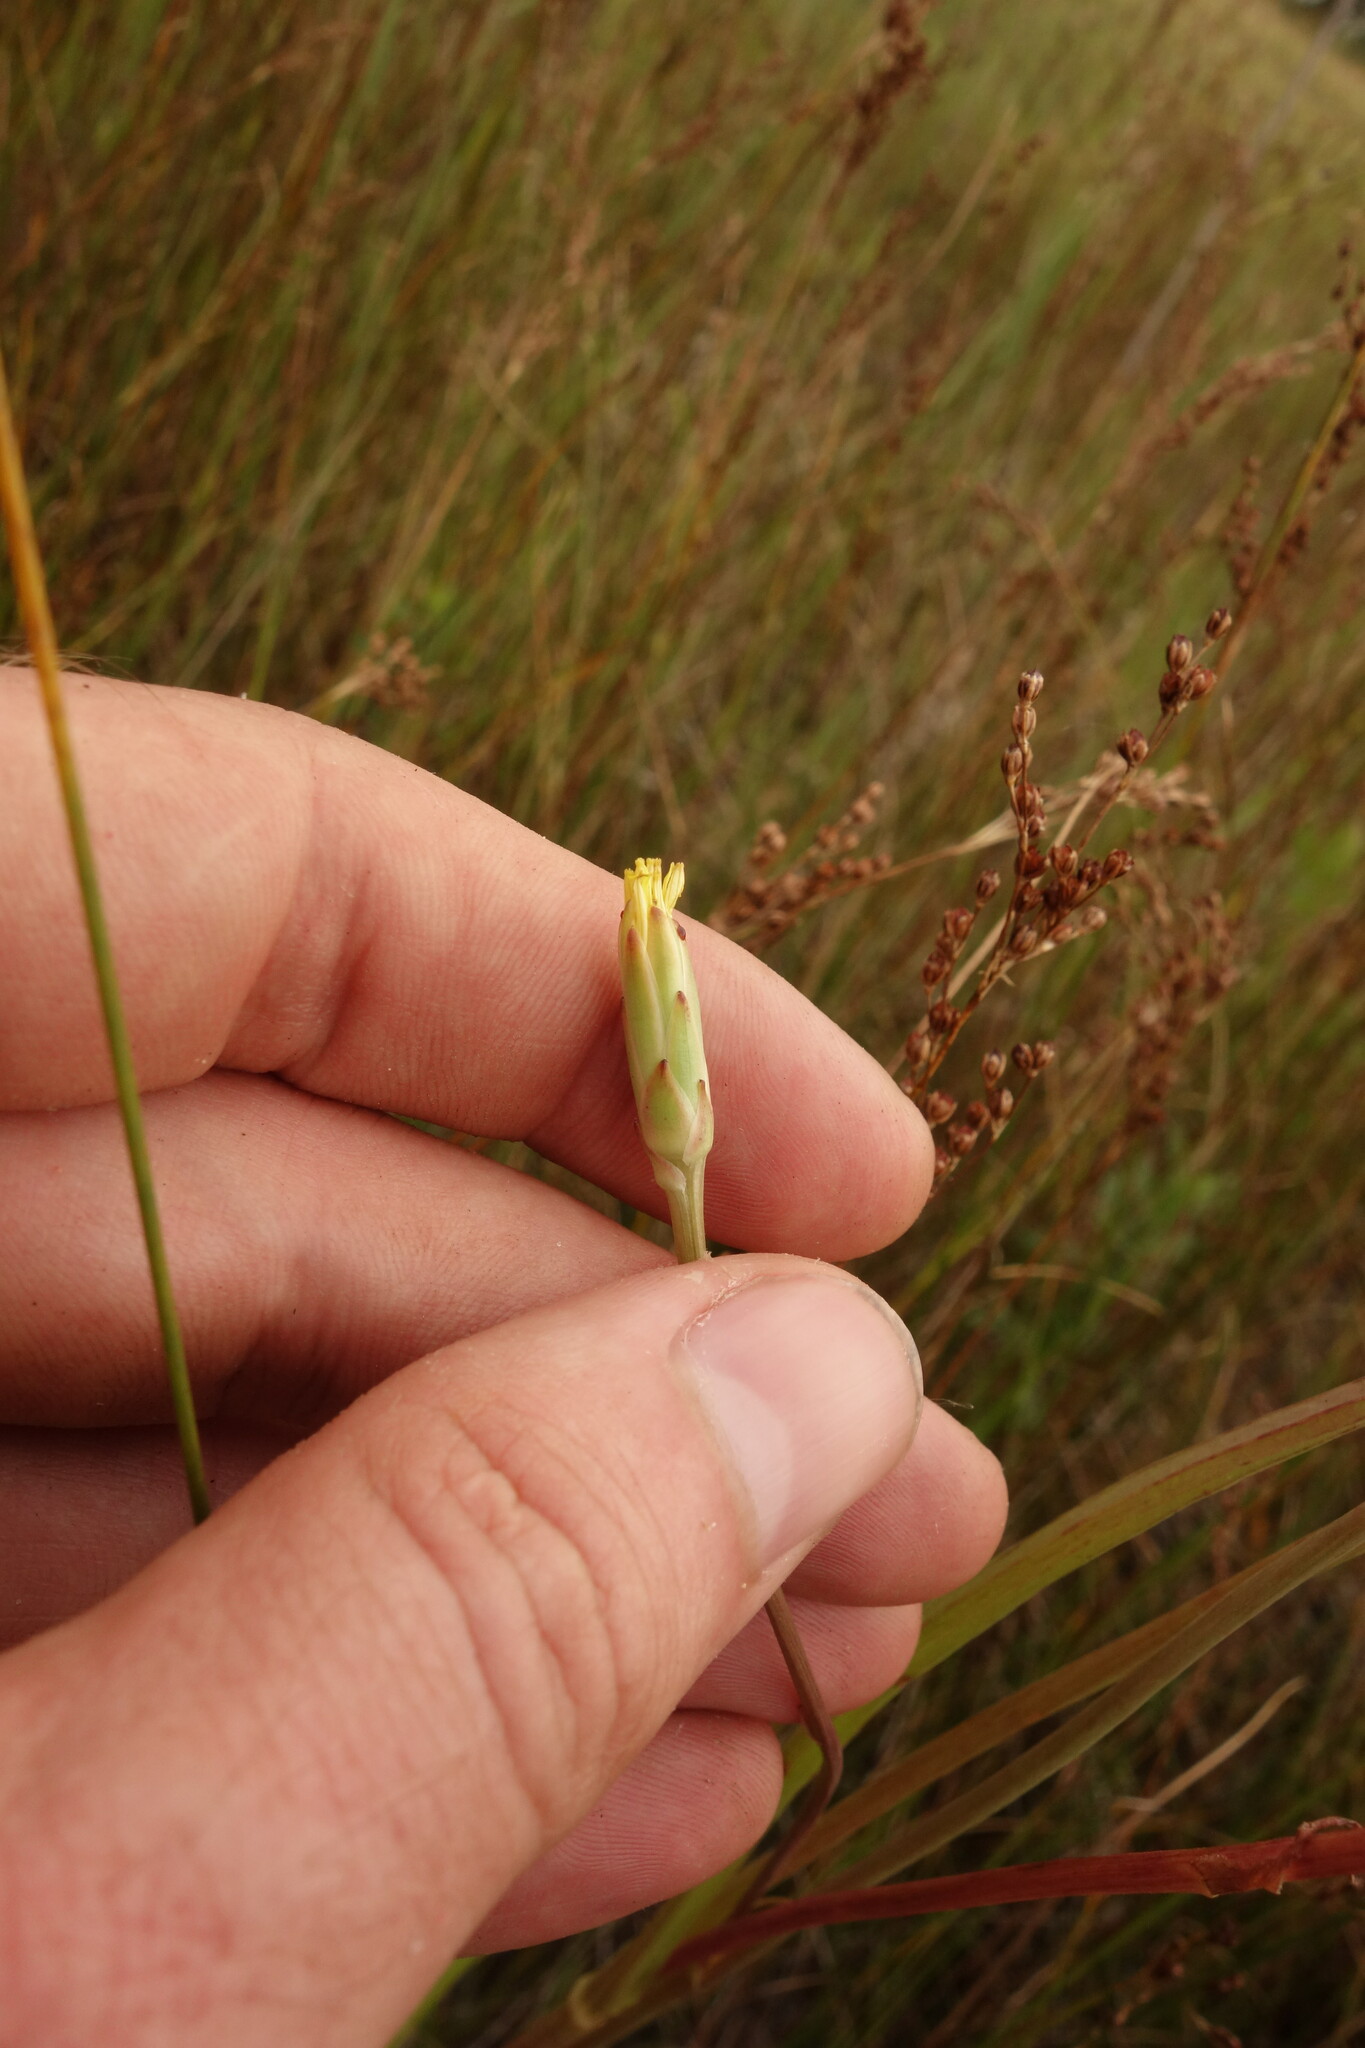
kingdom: Plantae
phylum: Tracheophyta
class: Magnoliopsida
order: Asterales
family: Asteraceae
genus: Scorzonera
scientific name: Scorzonera parviflora
